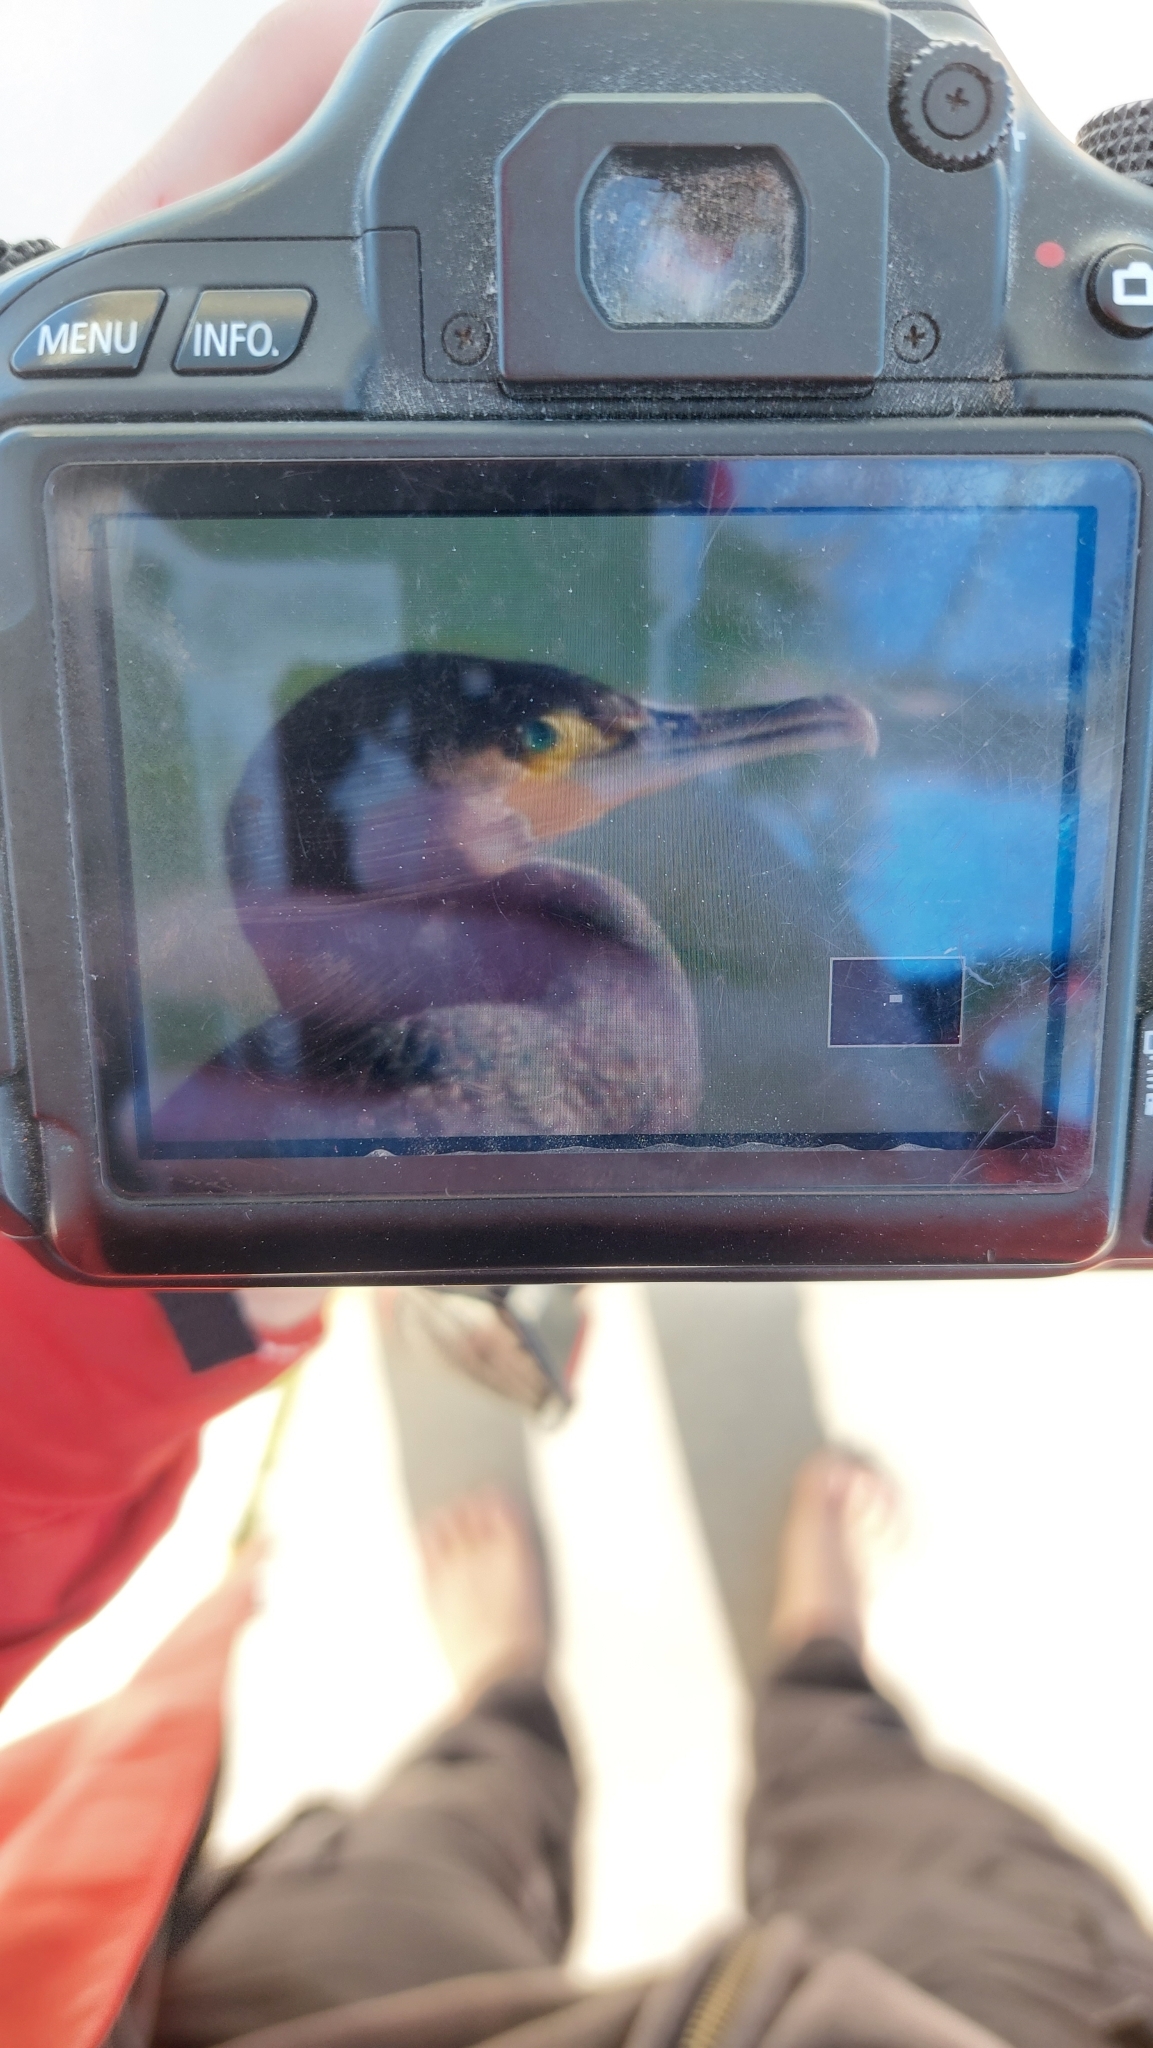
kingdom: Animalia
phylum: Chordata
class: Aves
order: Suliformes
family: Phalacrocoracidae
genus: Phalacrocorax
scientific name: Phalacrocorax carbo
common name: Great cormorant
